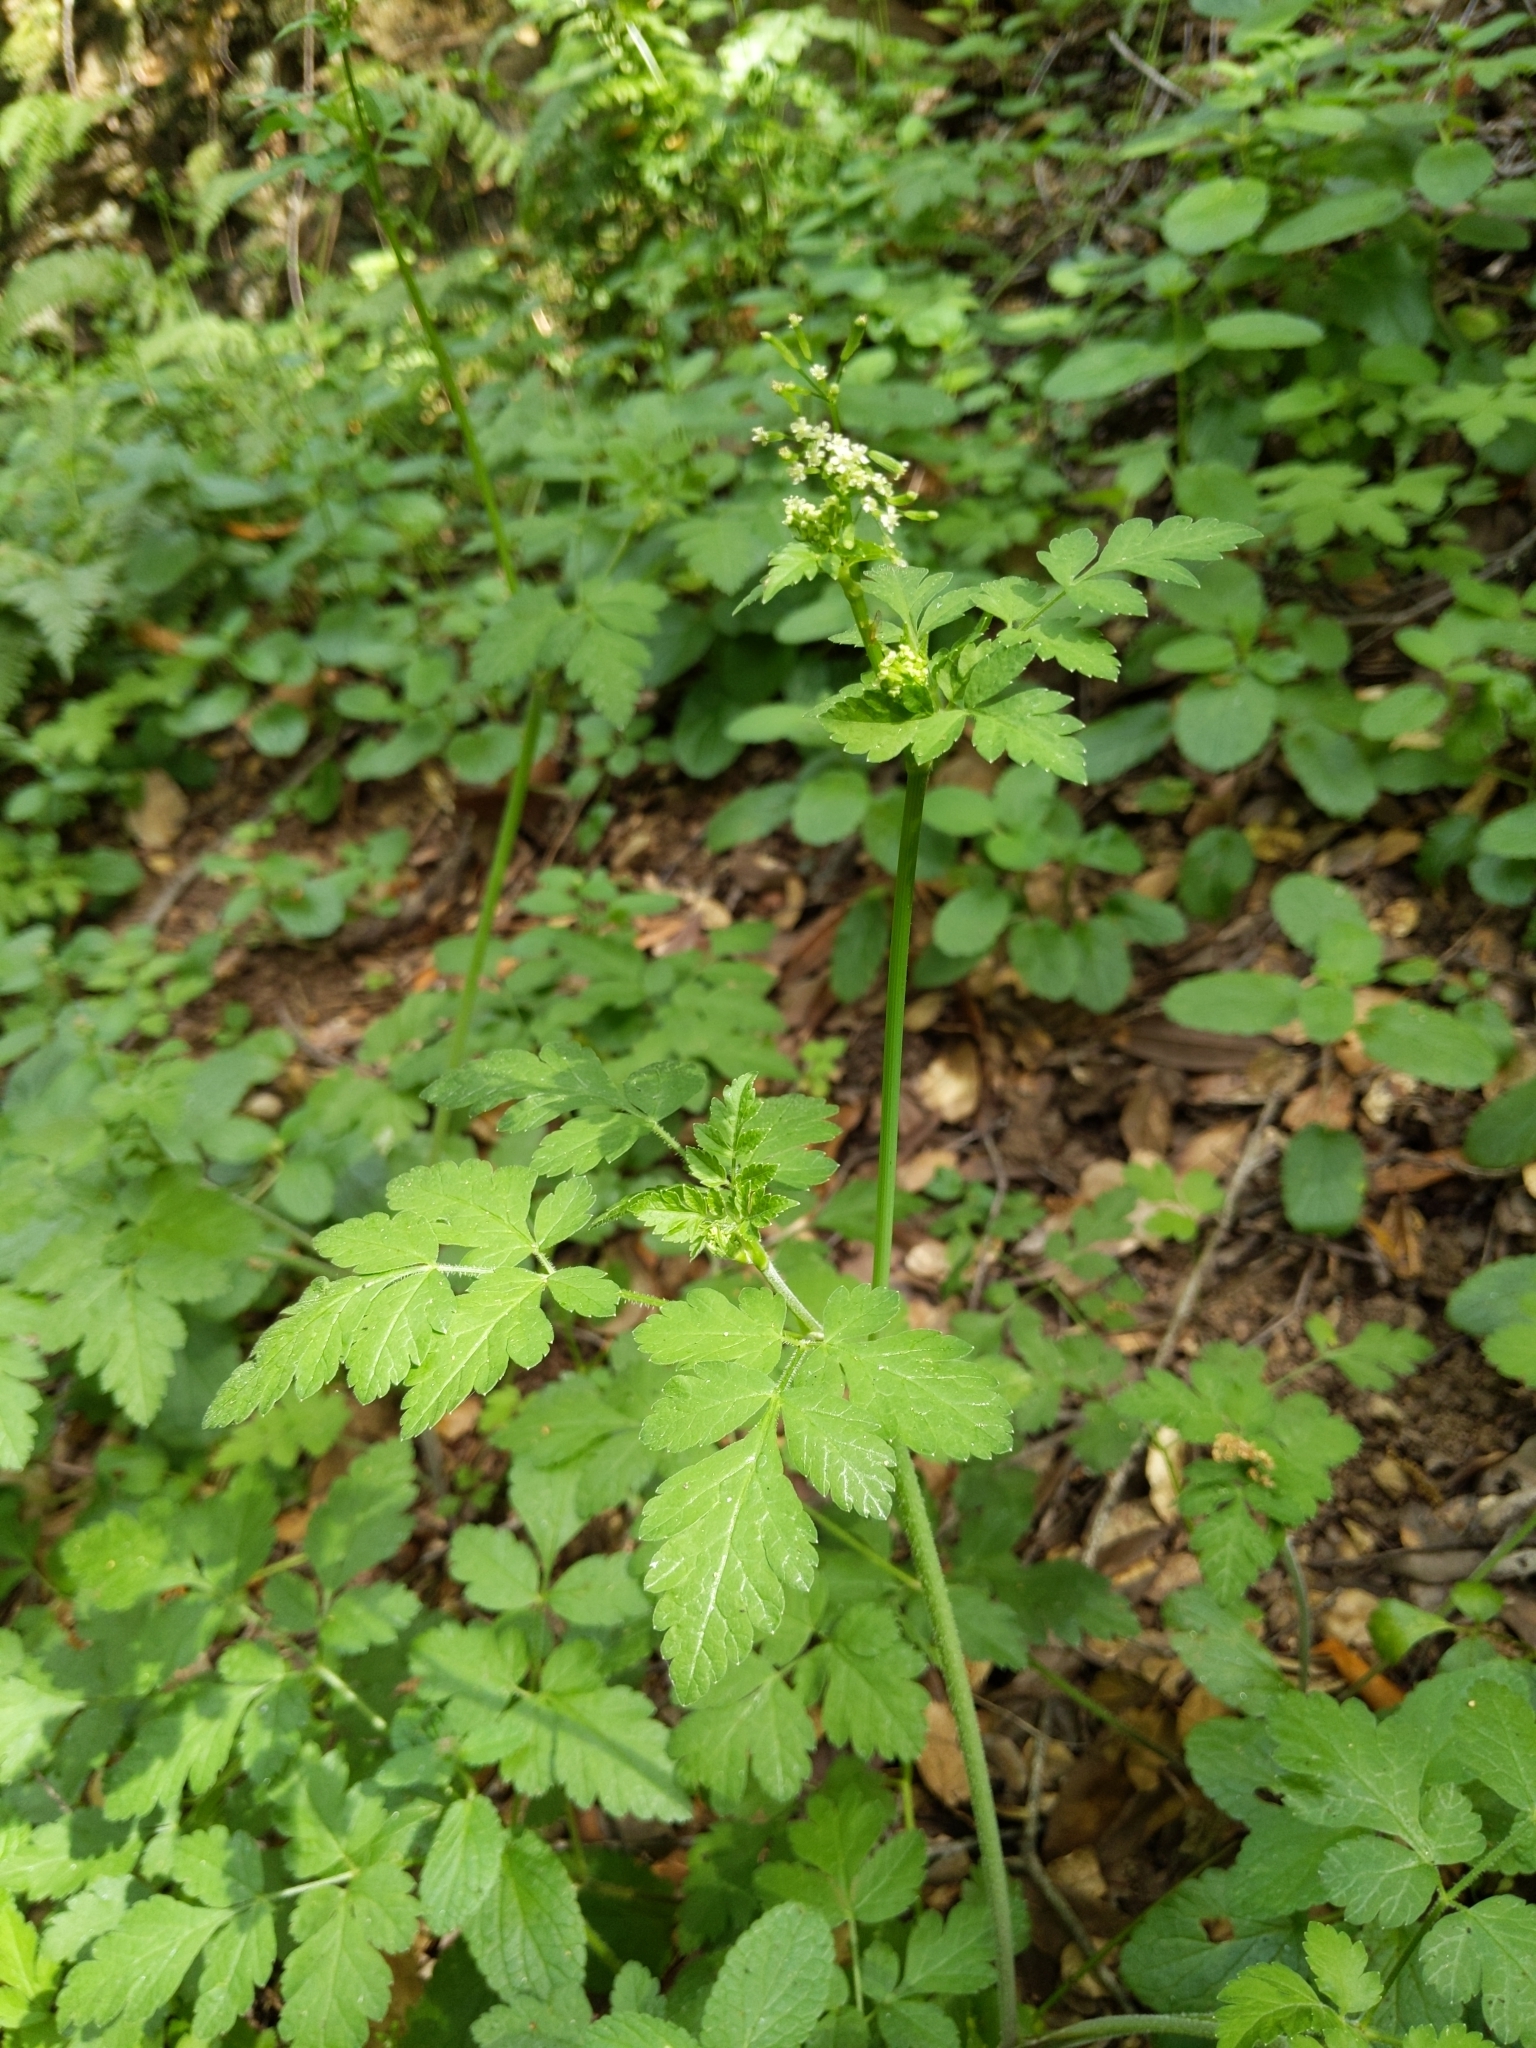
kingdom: Plantae
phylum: Tracheophyta
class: Magnoliopsida
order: Apiales
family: Apiaceae
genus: Osmorhiza
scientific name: Osmorhiza berteroi
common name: Mountain sweet cicely
